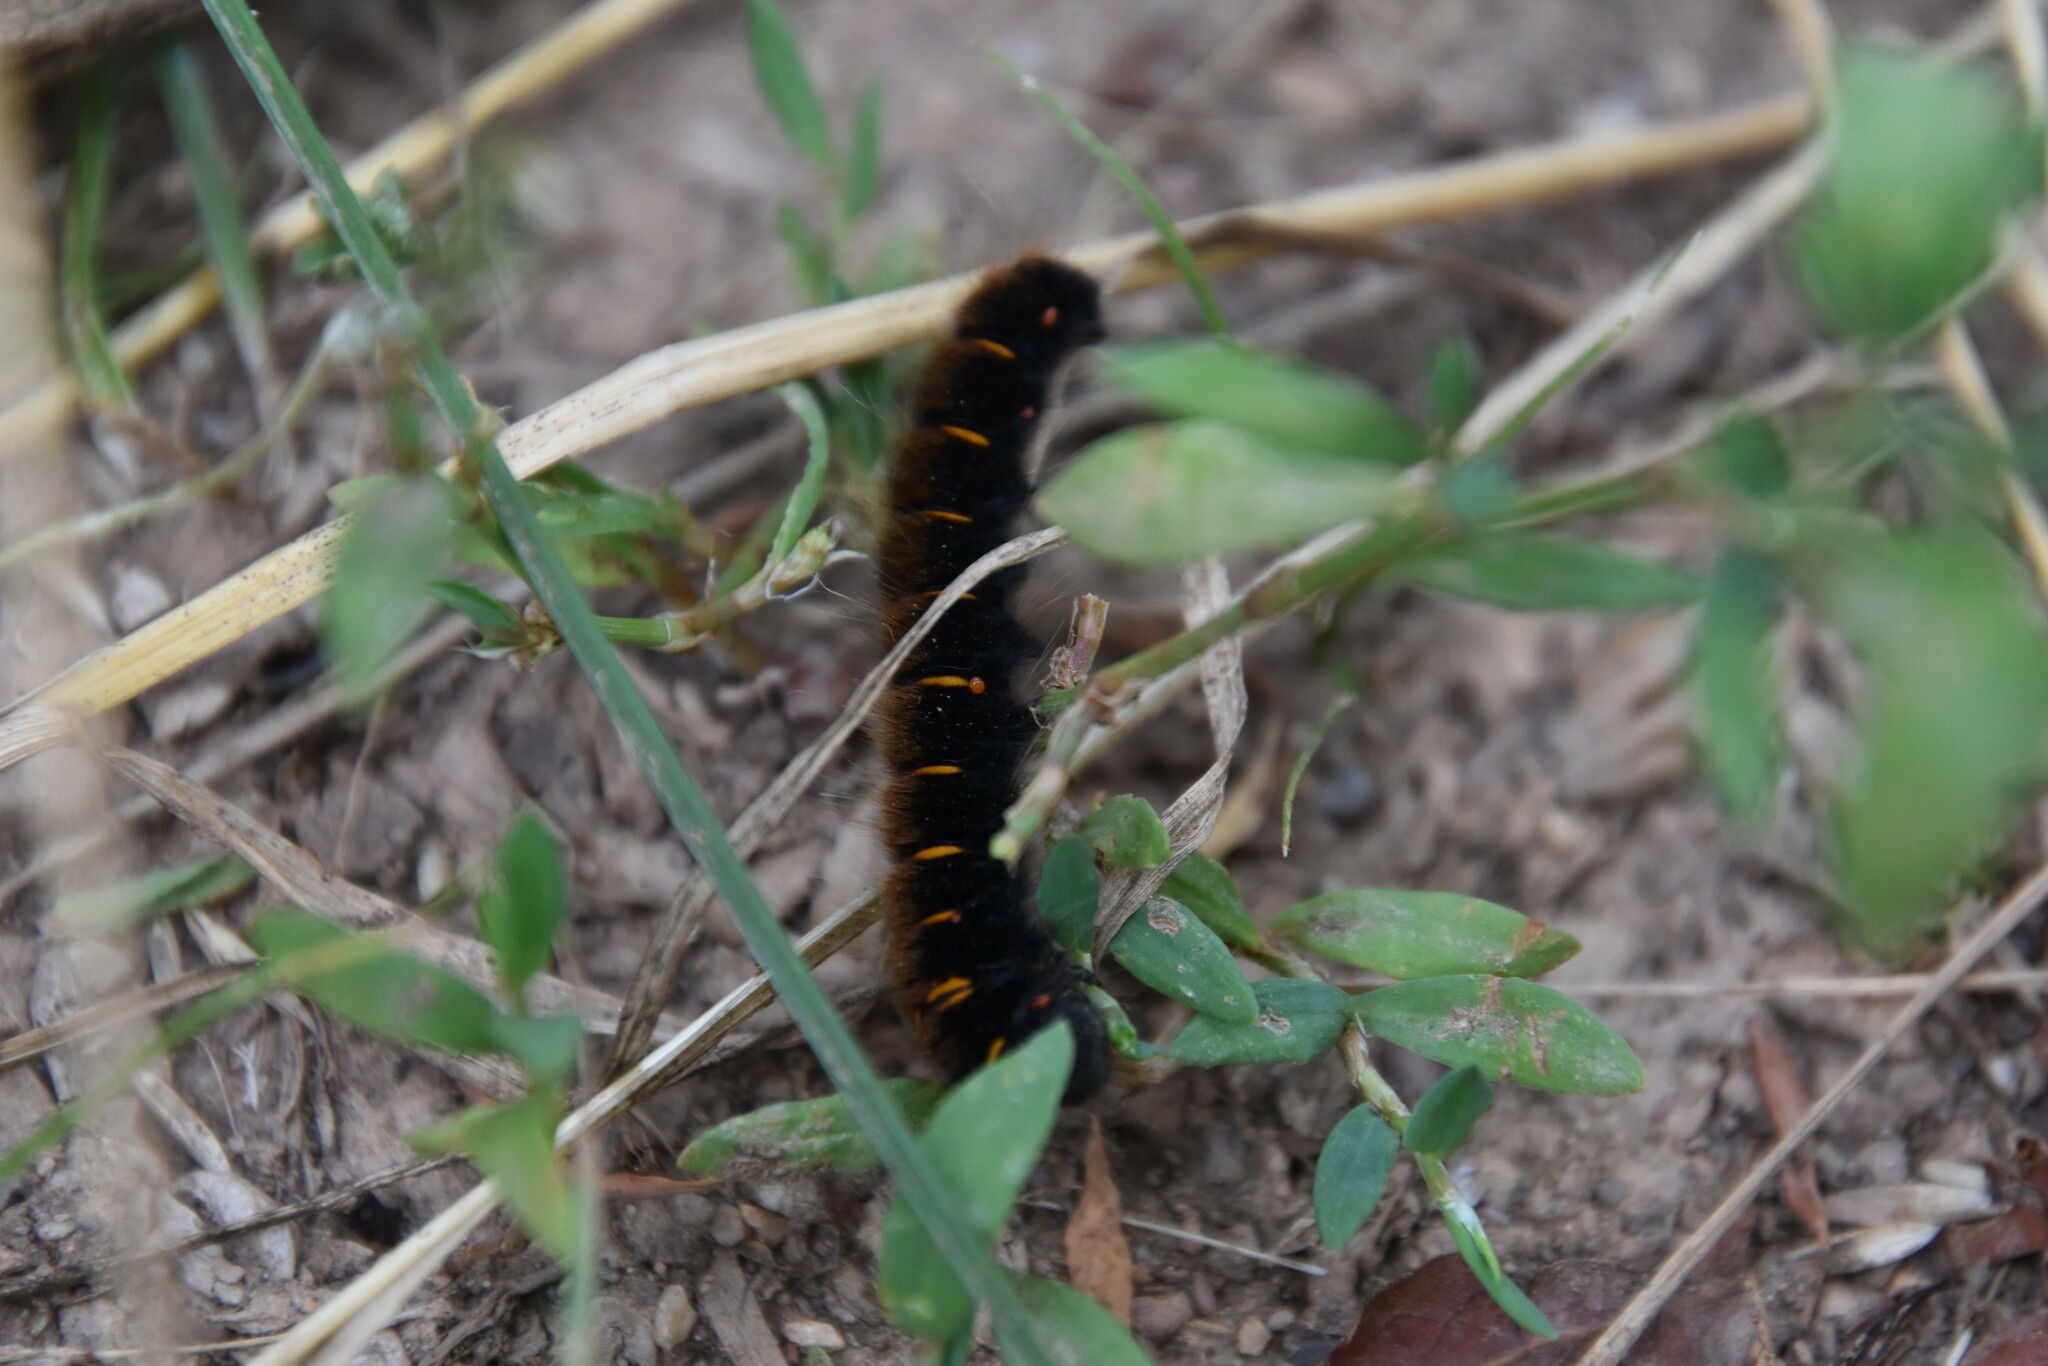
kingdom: Animalia
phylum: Arthropoda
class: Insecta
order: Lepidoptera
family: Lasiocampidae
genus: Macrothylacia
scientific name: Macrothylacia rubi
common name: Fox moth
